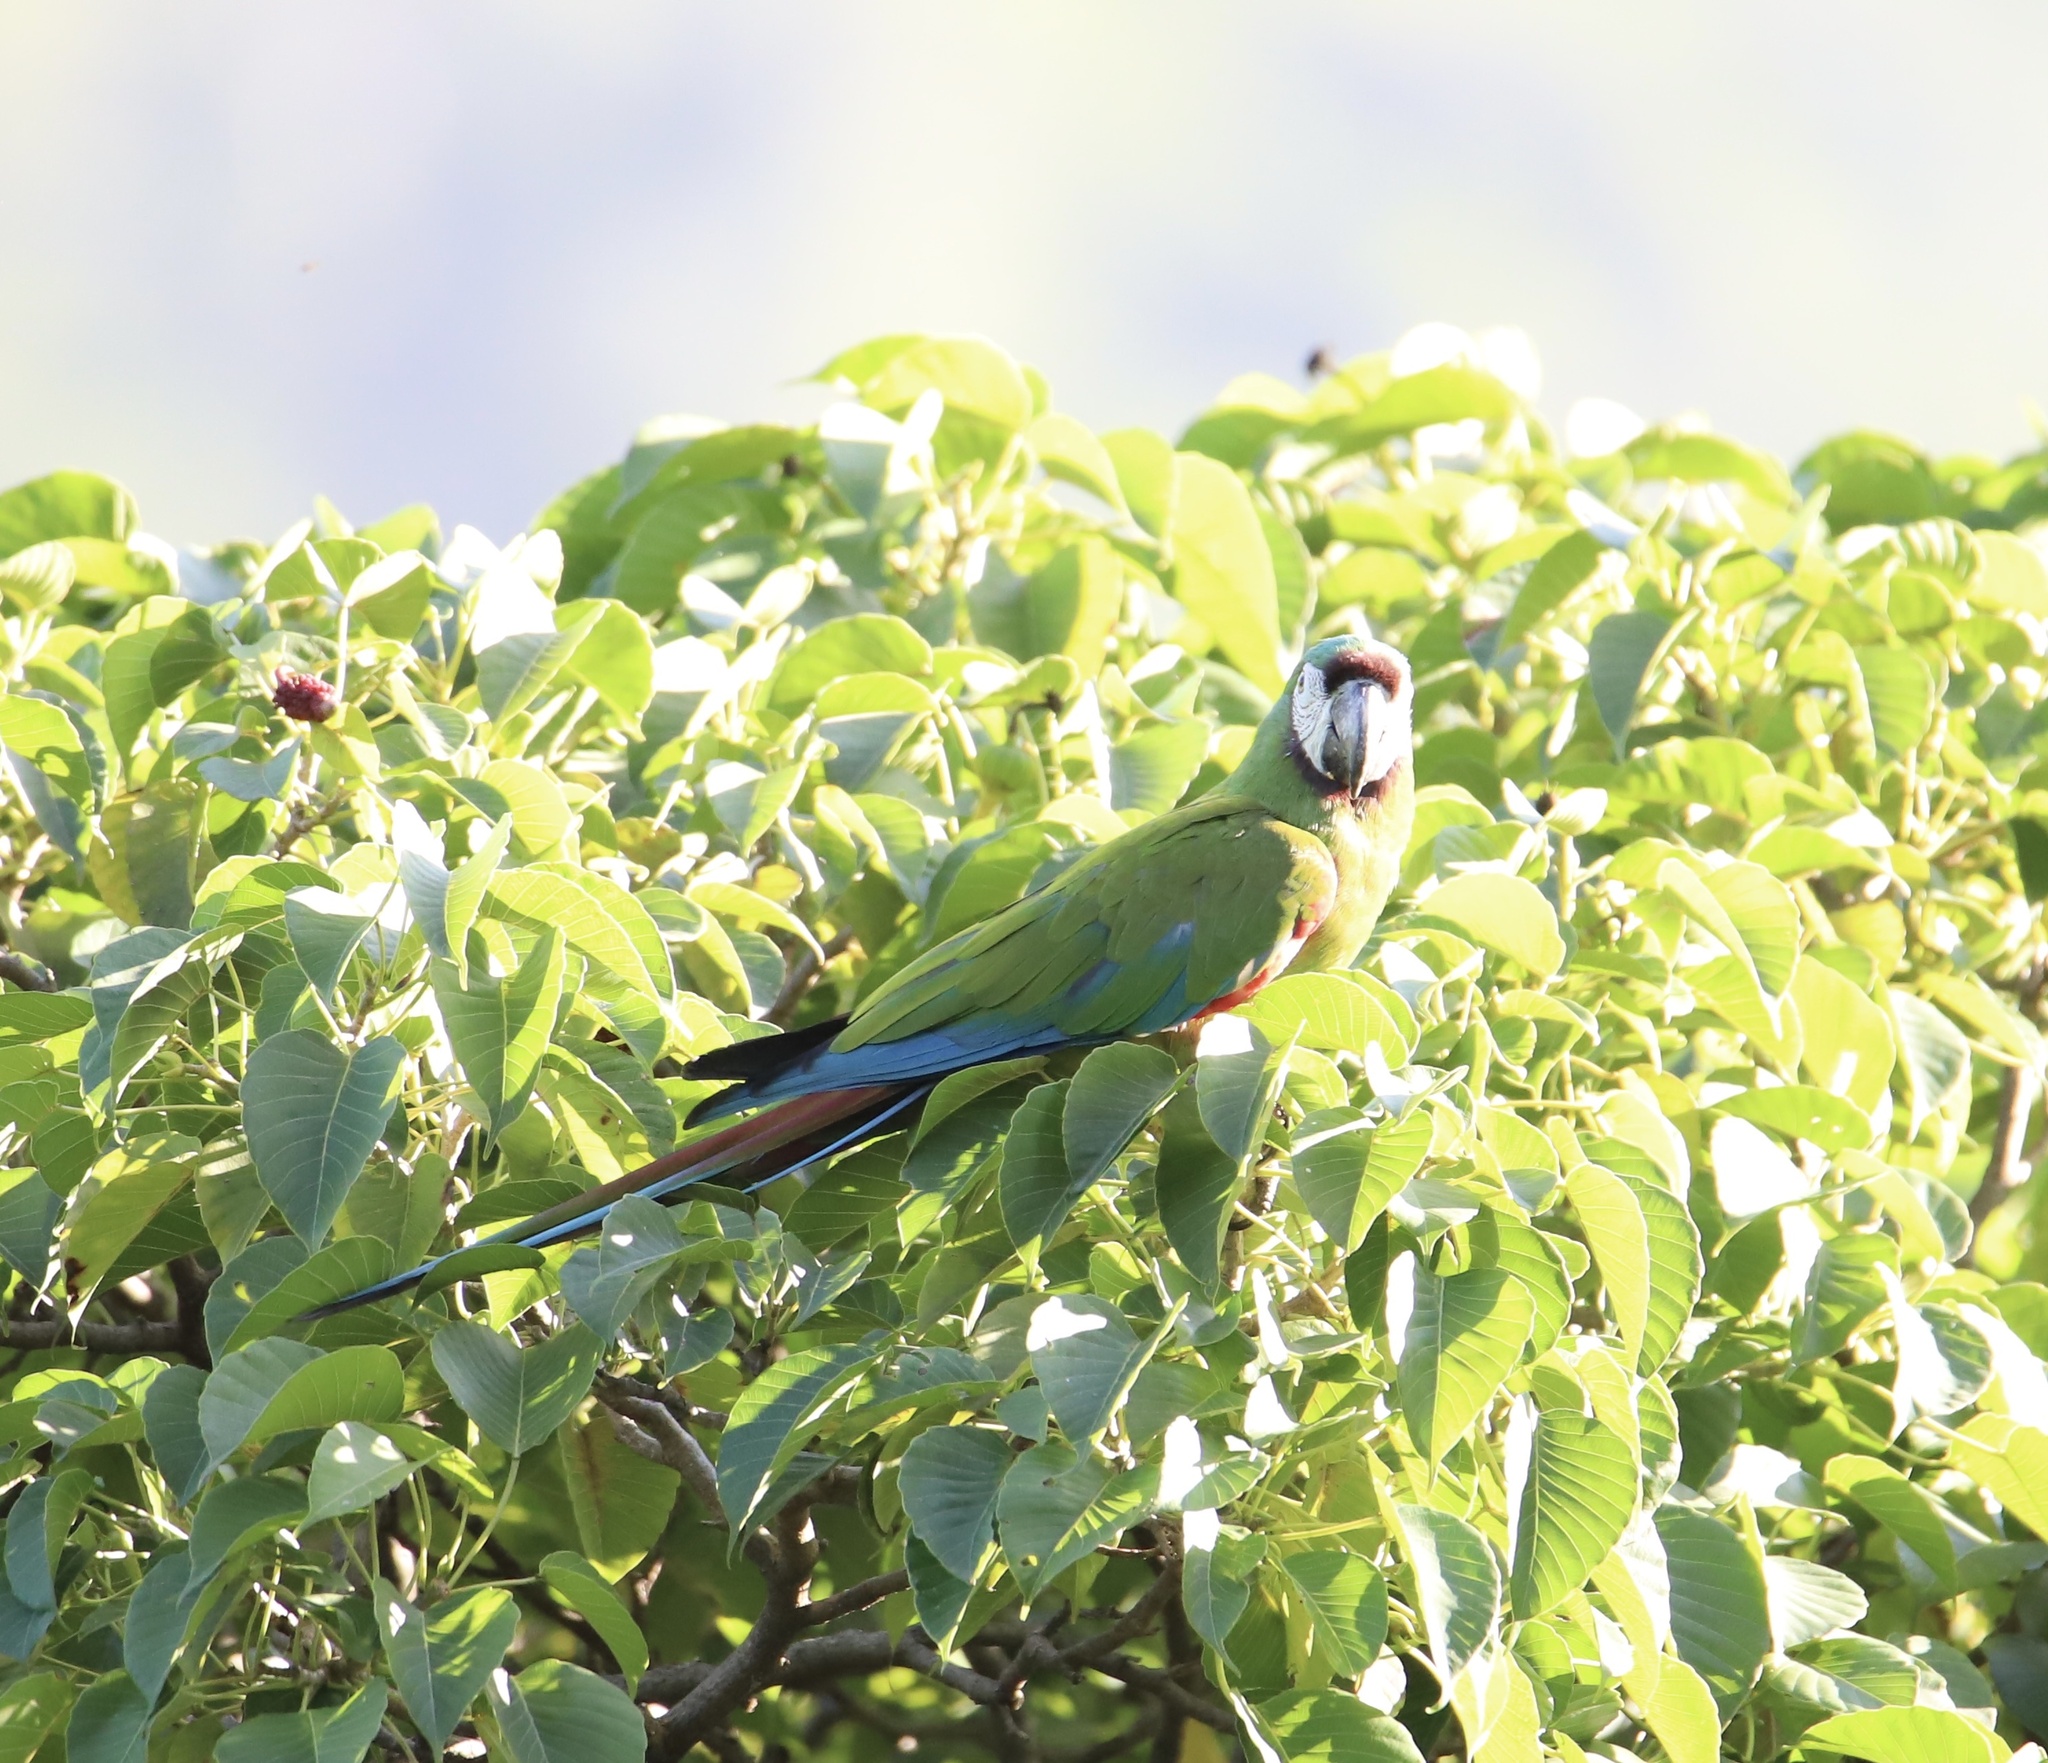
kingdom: Animalia
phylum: Chordata
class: Aves
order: Psittaciformes
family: Psittacidae
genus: Ara
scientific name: Ara severus
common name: Chestnut-fronted macaw
